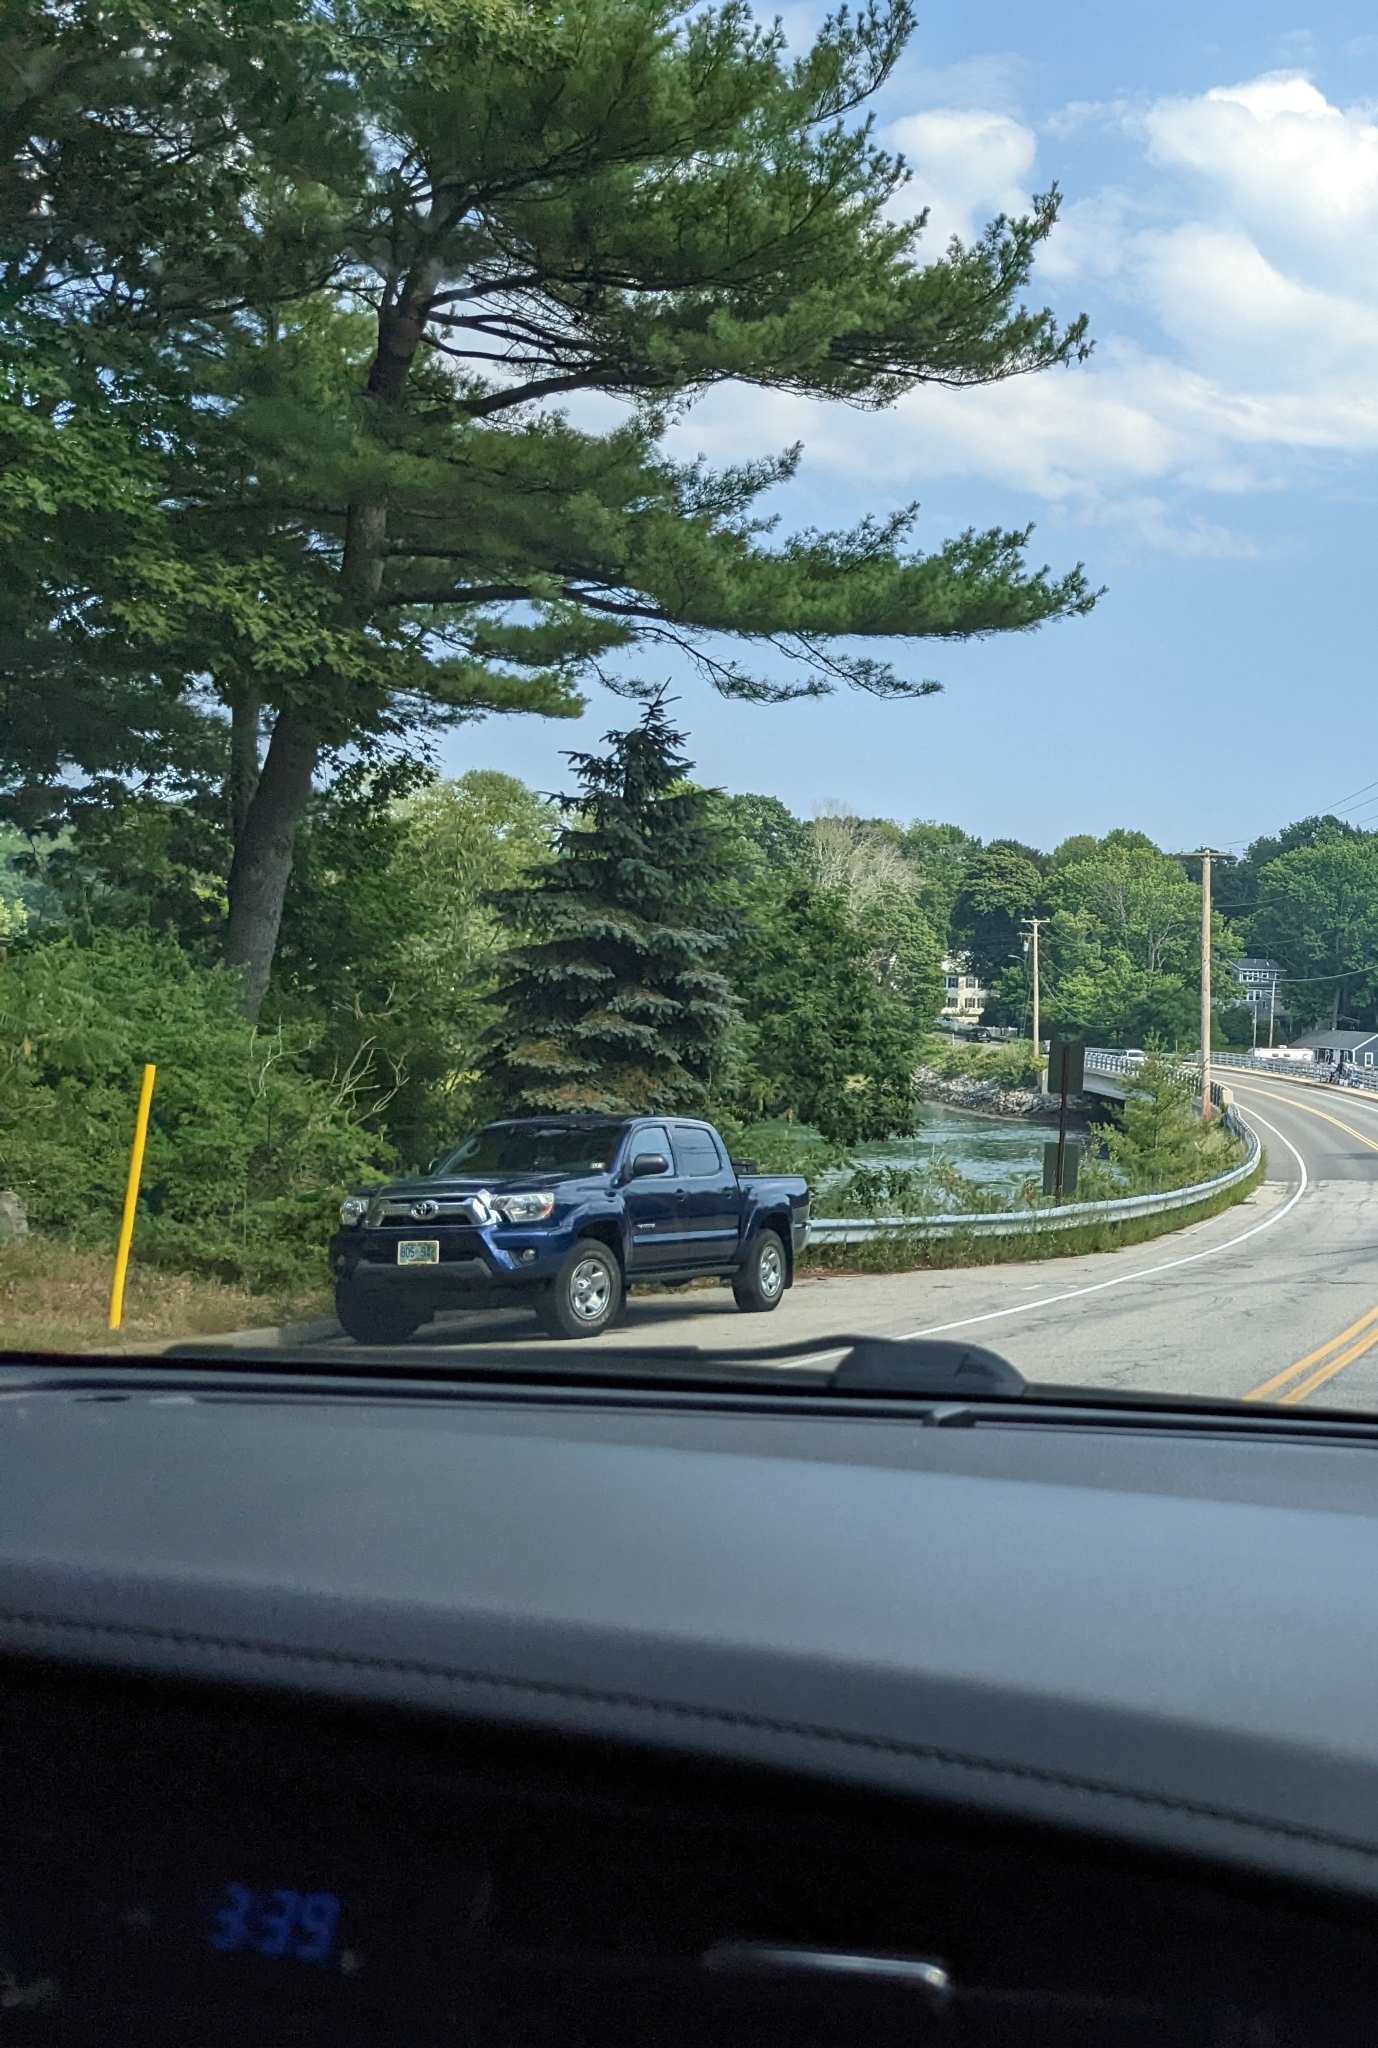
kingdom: Plantae
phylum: Tracheophyta
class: Pinopsida
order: Pinales
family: Pinaceae
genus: Pinus
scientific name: Pinus strobus
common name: Weymouth pine
